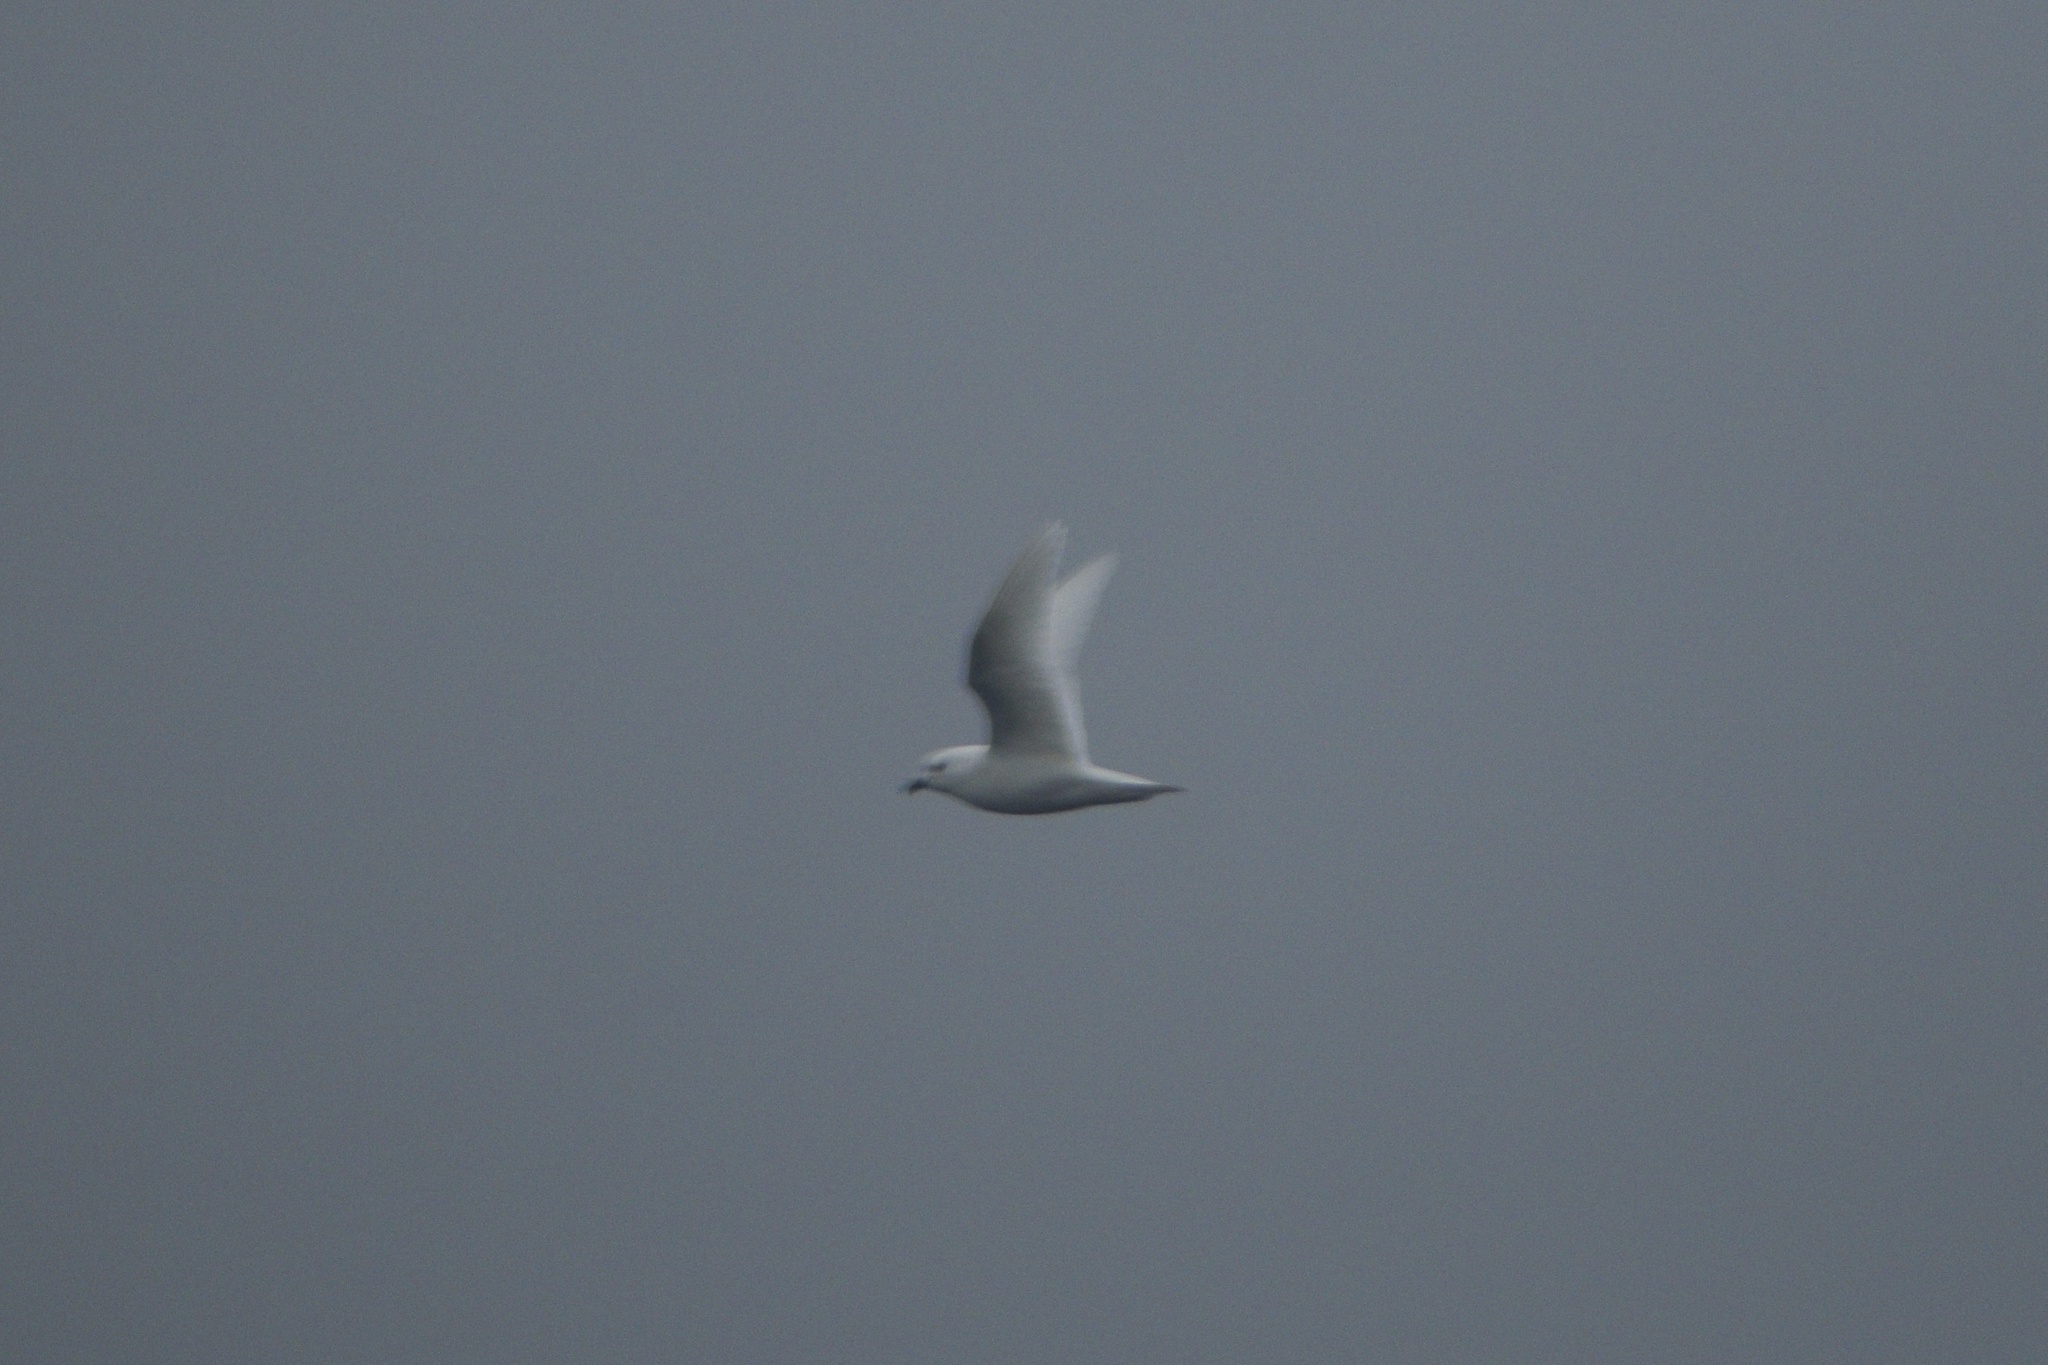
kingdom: Animalia
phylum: Chordata
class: Aves
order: Procellariiformes
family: Procellariidae
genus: Pagodroma
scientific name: Pagodroma nivea
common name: Snow petrel
